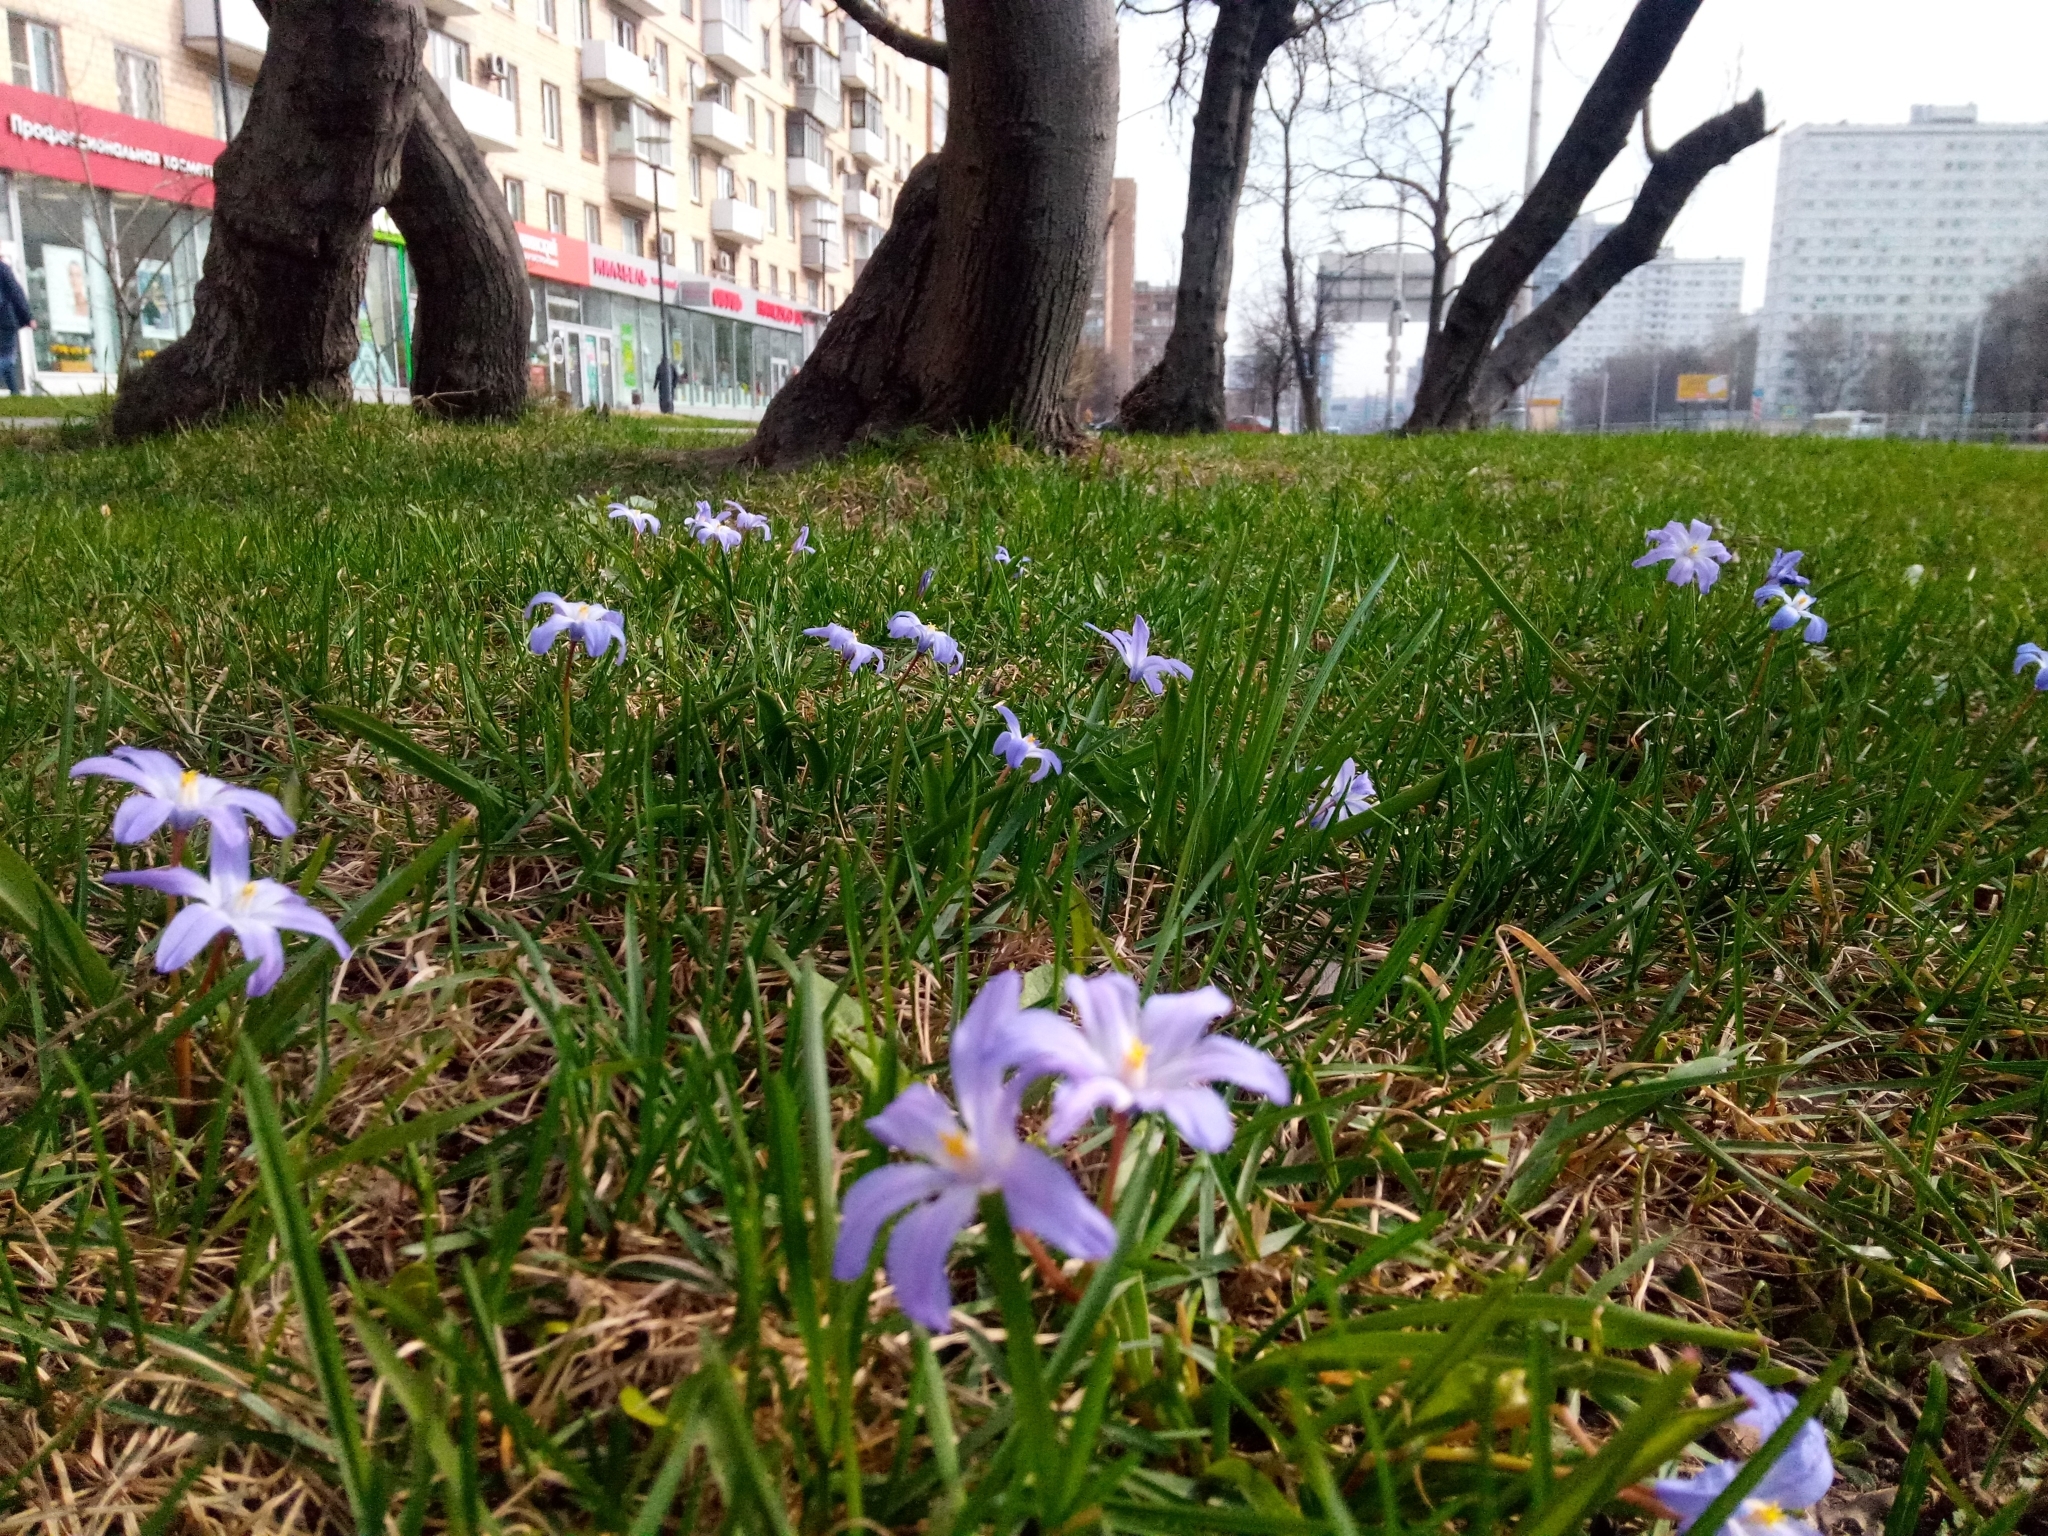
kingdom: Plantae
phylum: Tracheophyta
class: Liliopsida
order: Asparagales
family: Asparagaceae
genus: Scilla
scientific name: Scilla luciliae
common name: Boissier's glory-of-the-snow
